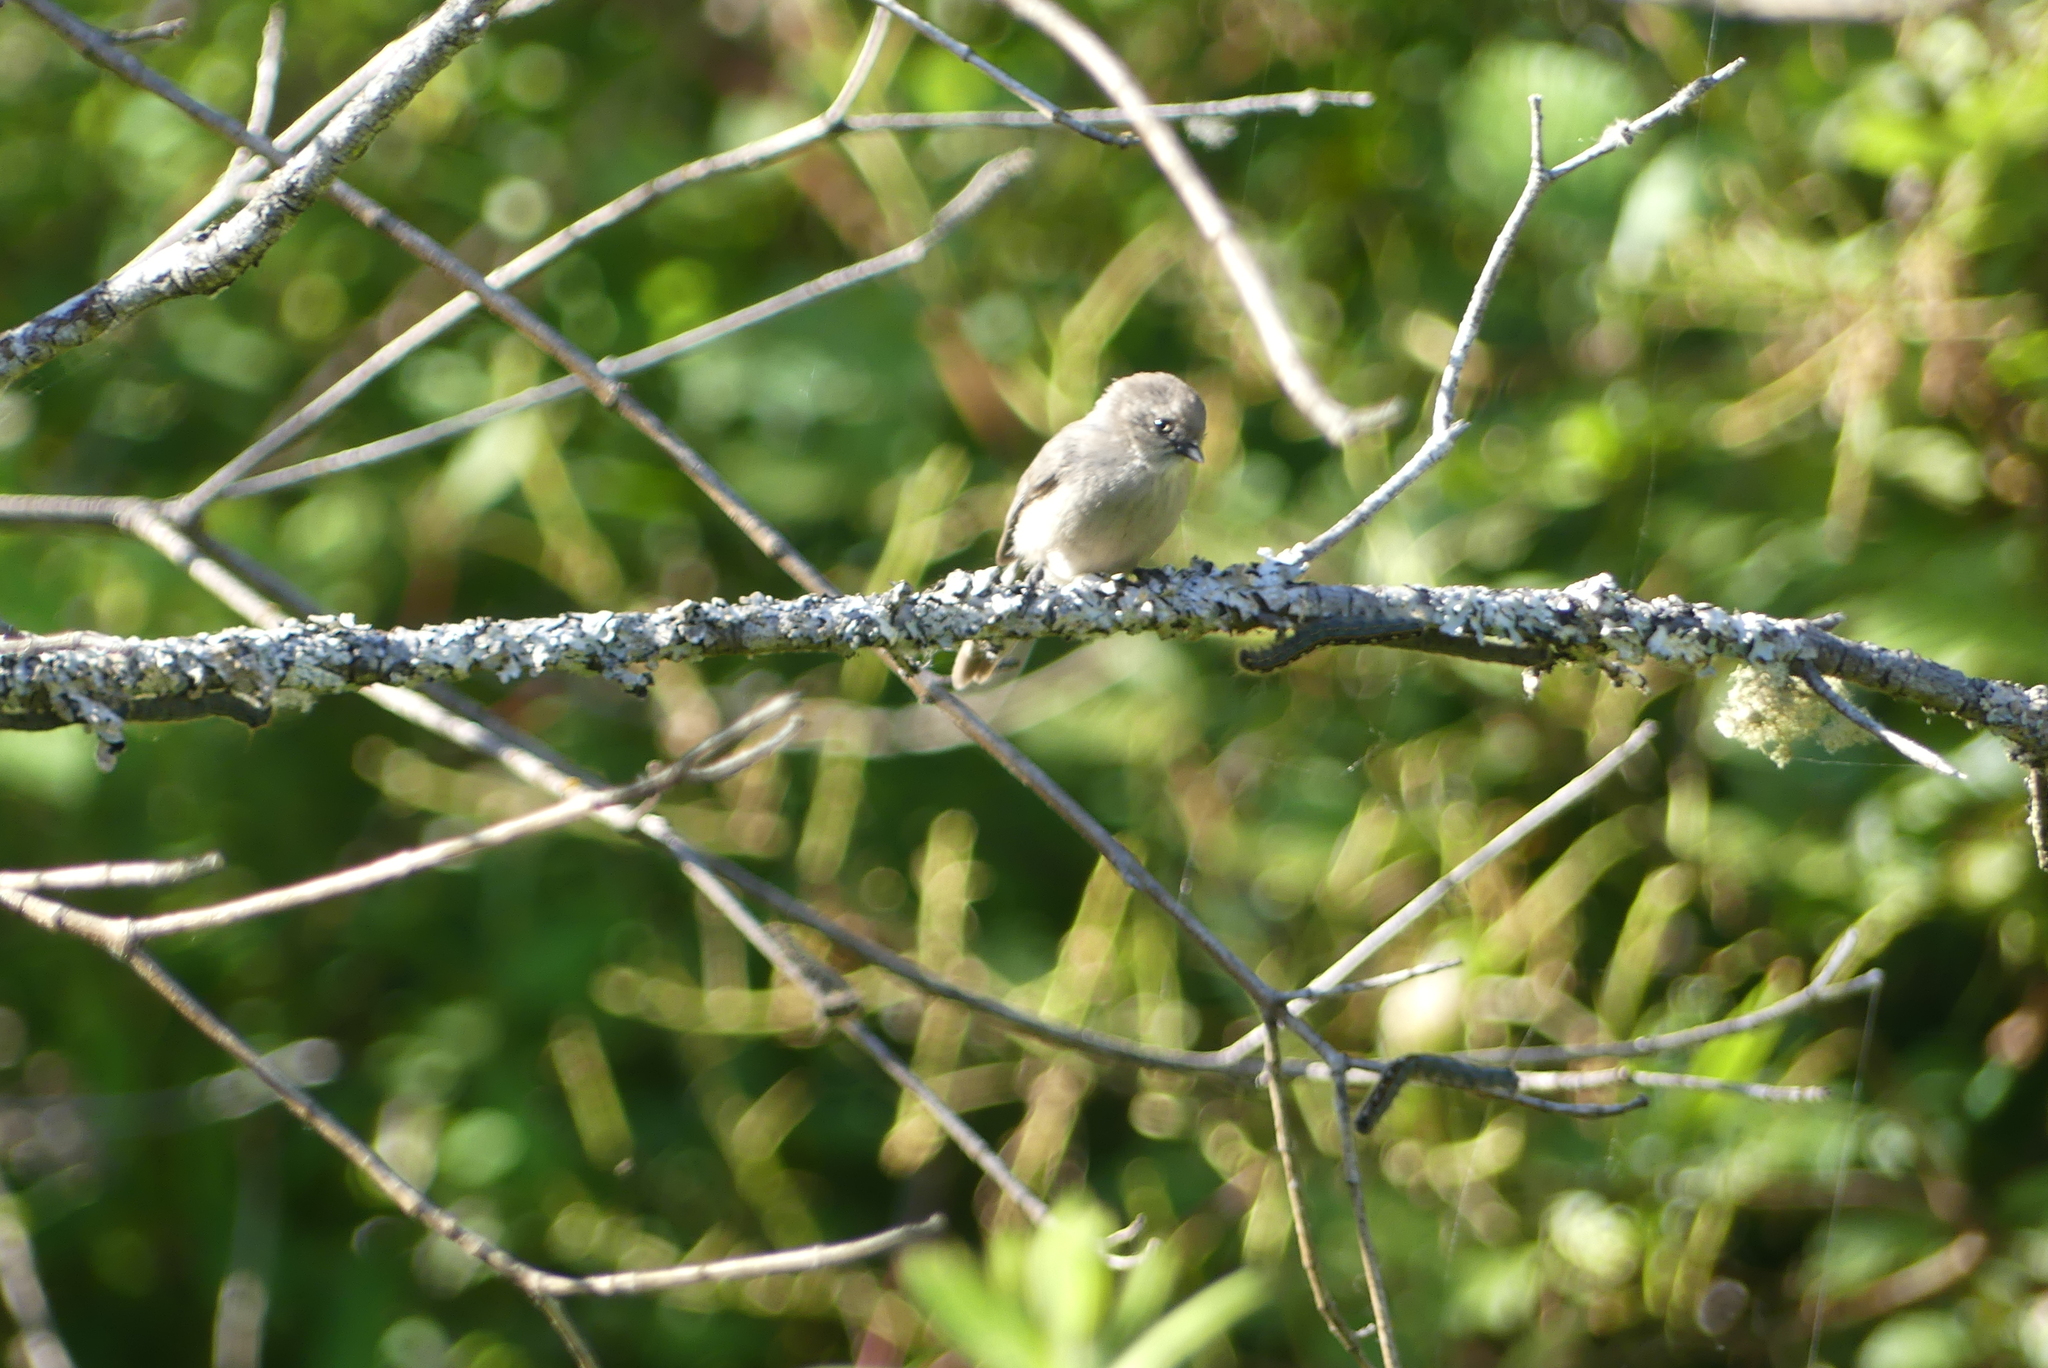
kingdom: Animalia
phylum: Chordata
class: Aves
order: Passeriformes
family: Aegithalidae
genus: Psaltriparus
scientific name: Psaltriparus minimus
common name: American bushtit
